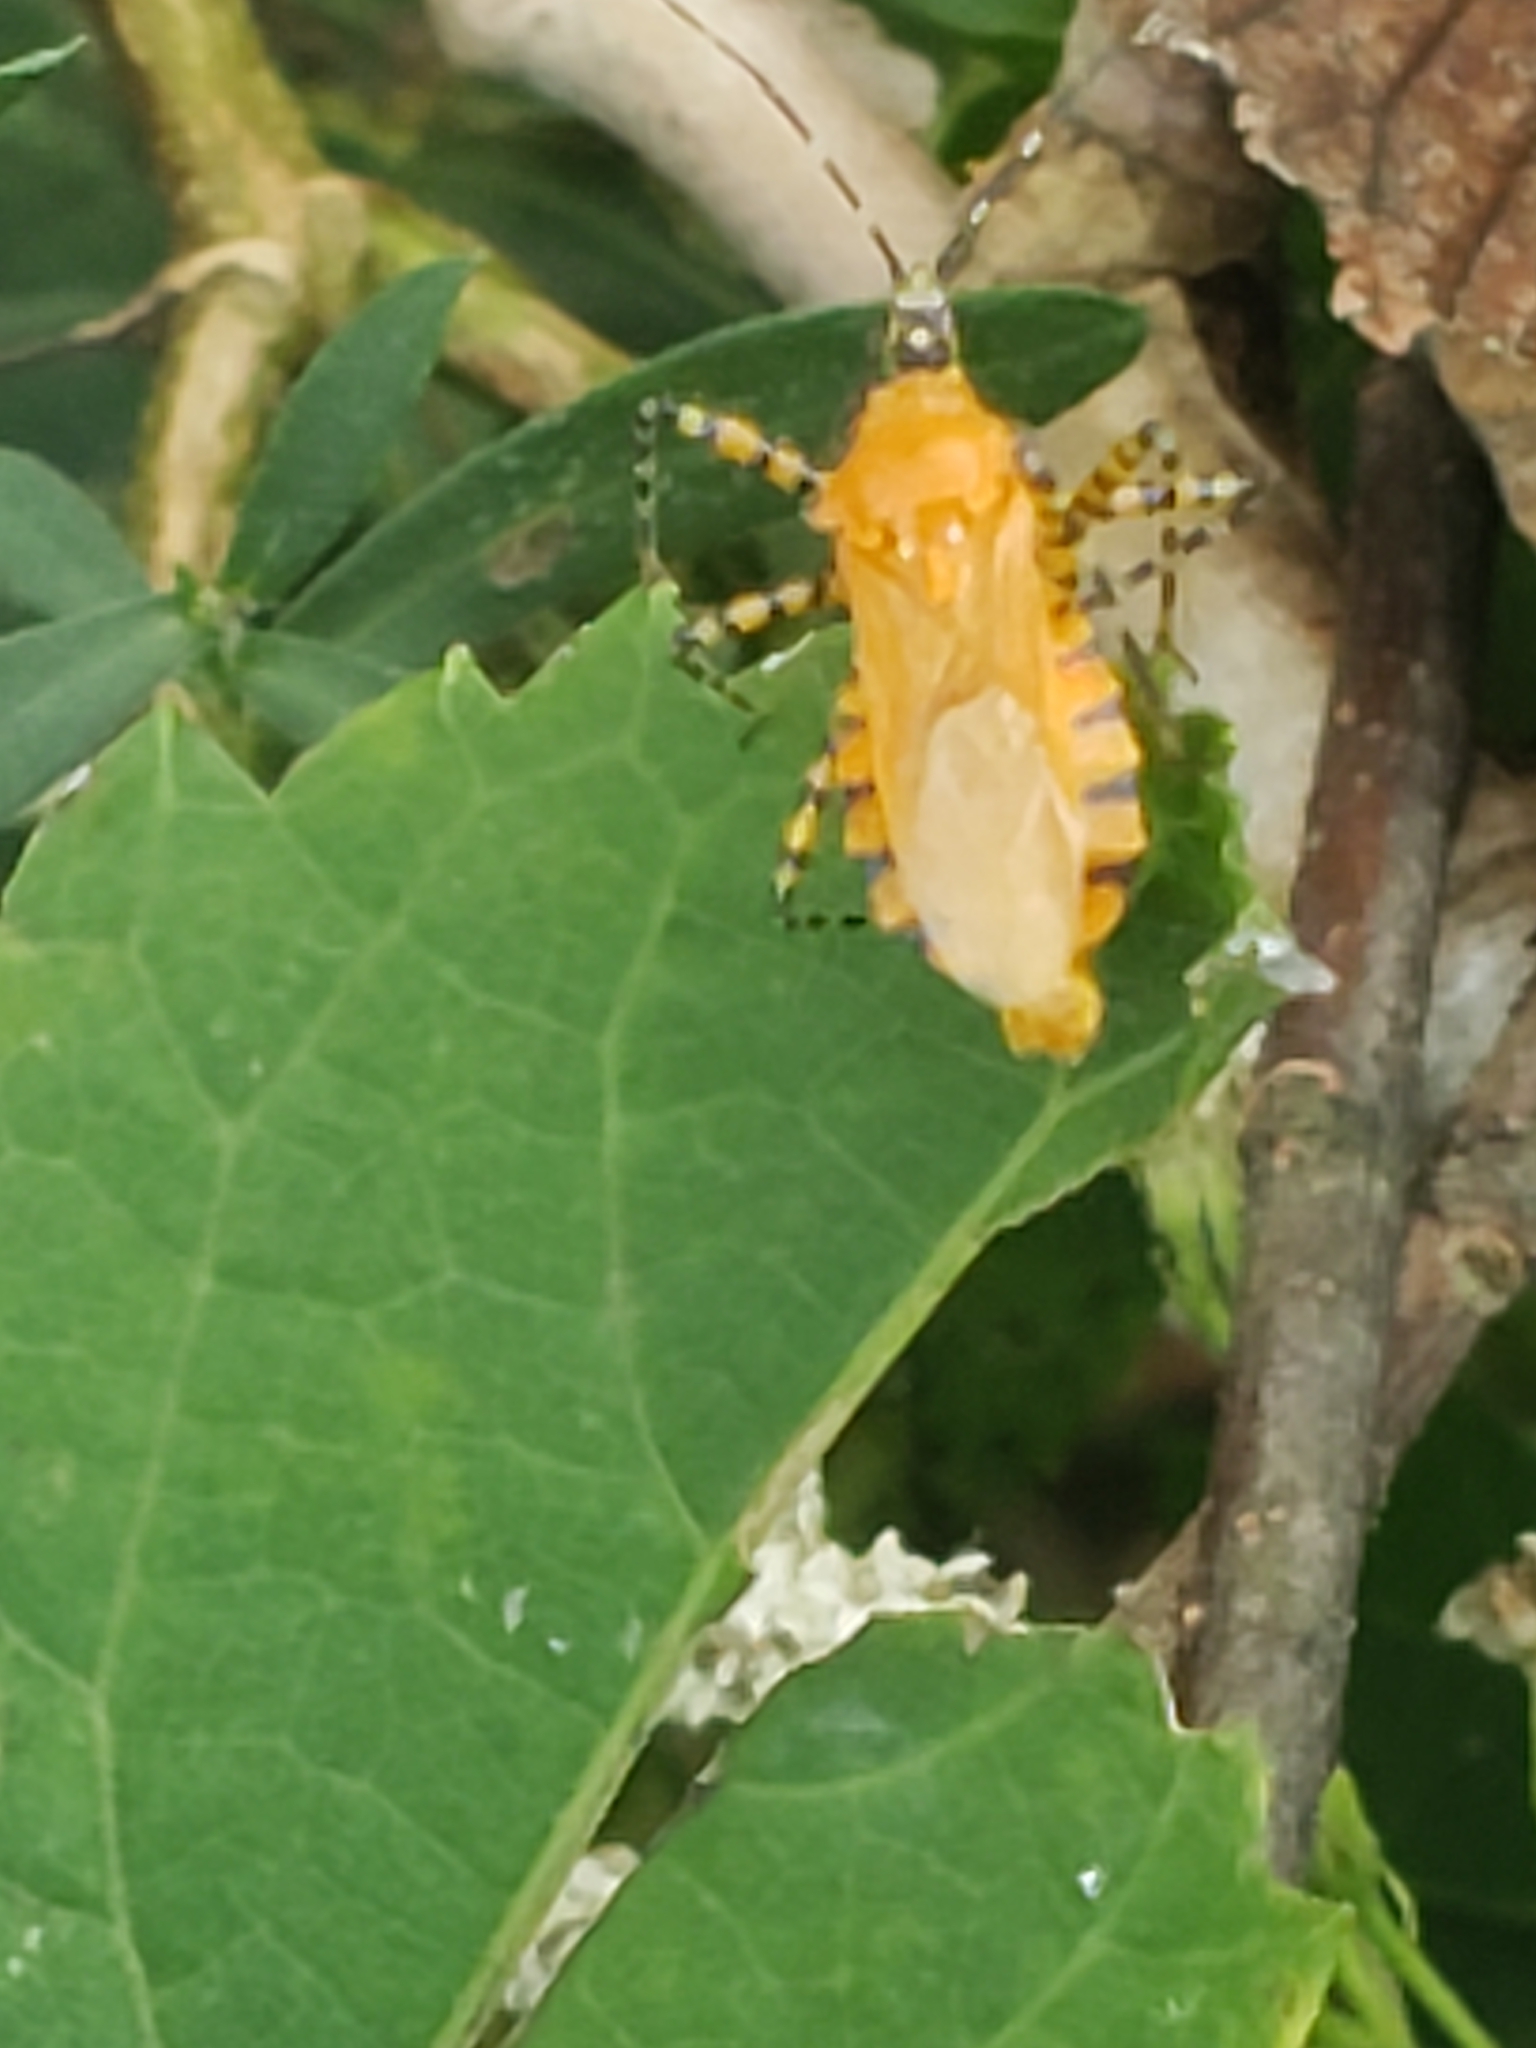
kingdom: Animalia
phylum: Arthropoda
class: Insecta
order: Hemiptera
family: Reduviidae
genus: Pselliopus
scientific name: Pselliopus barberi
